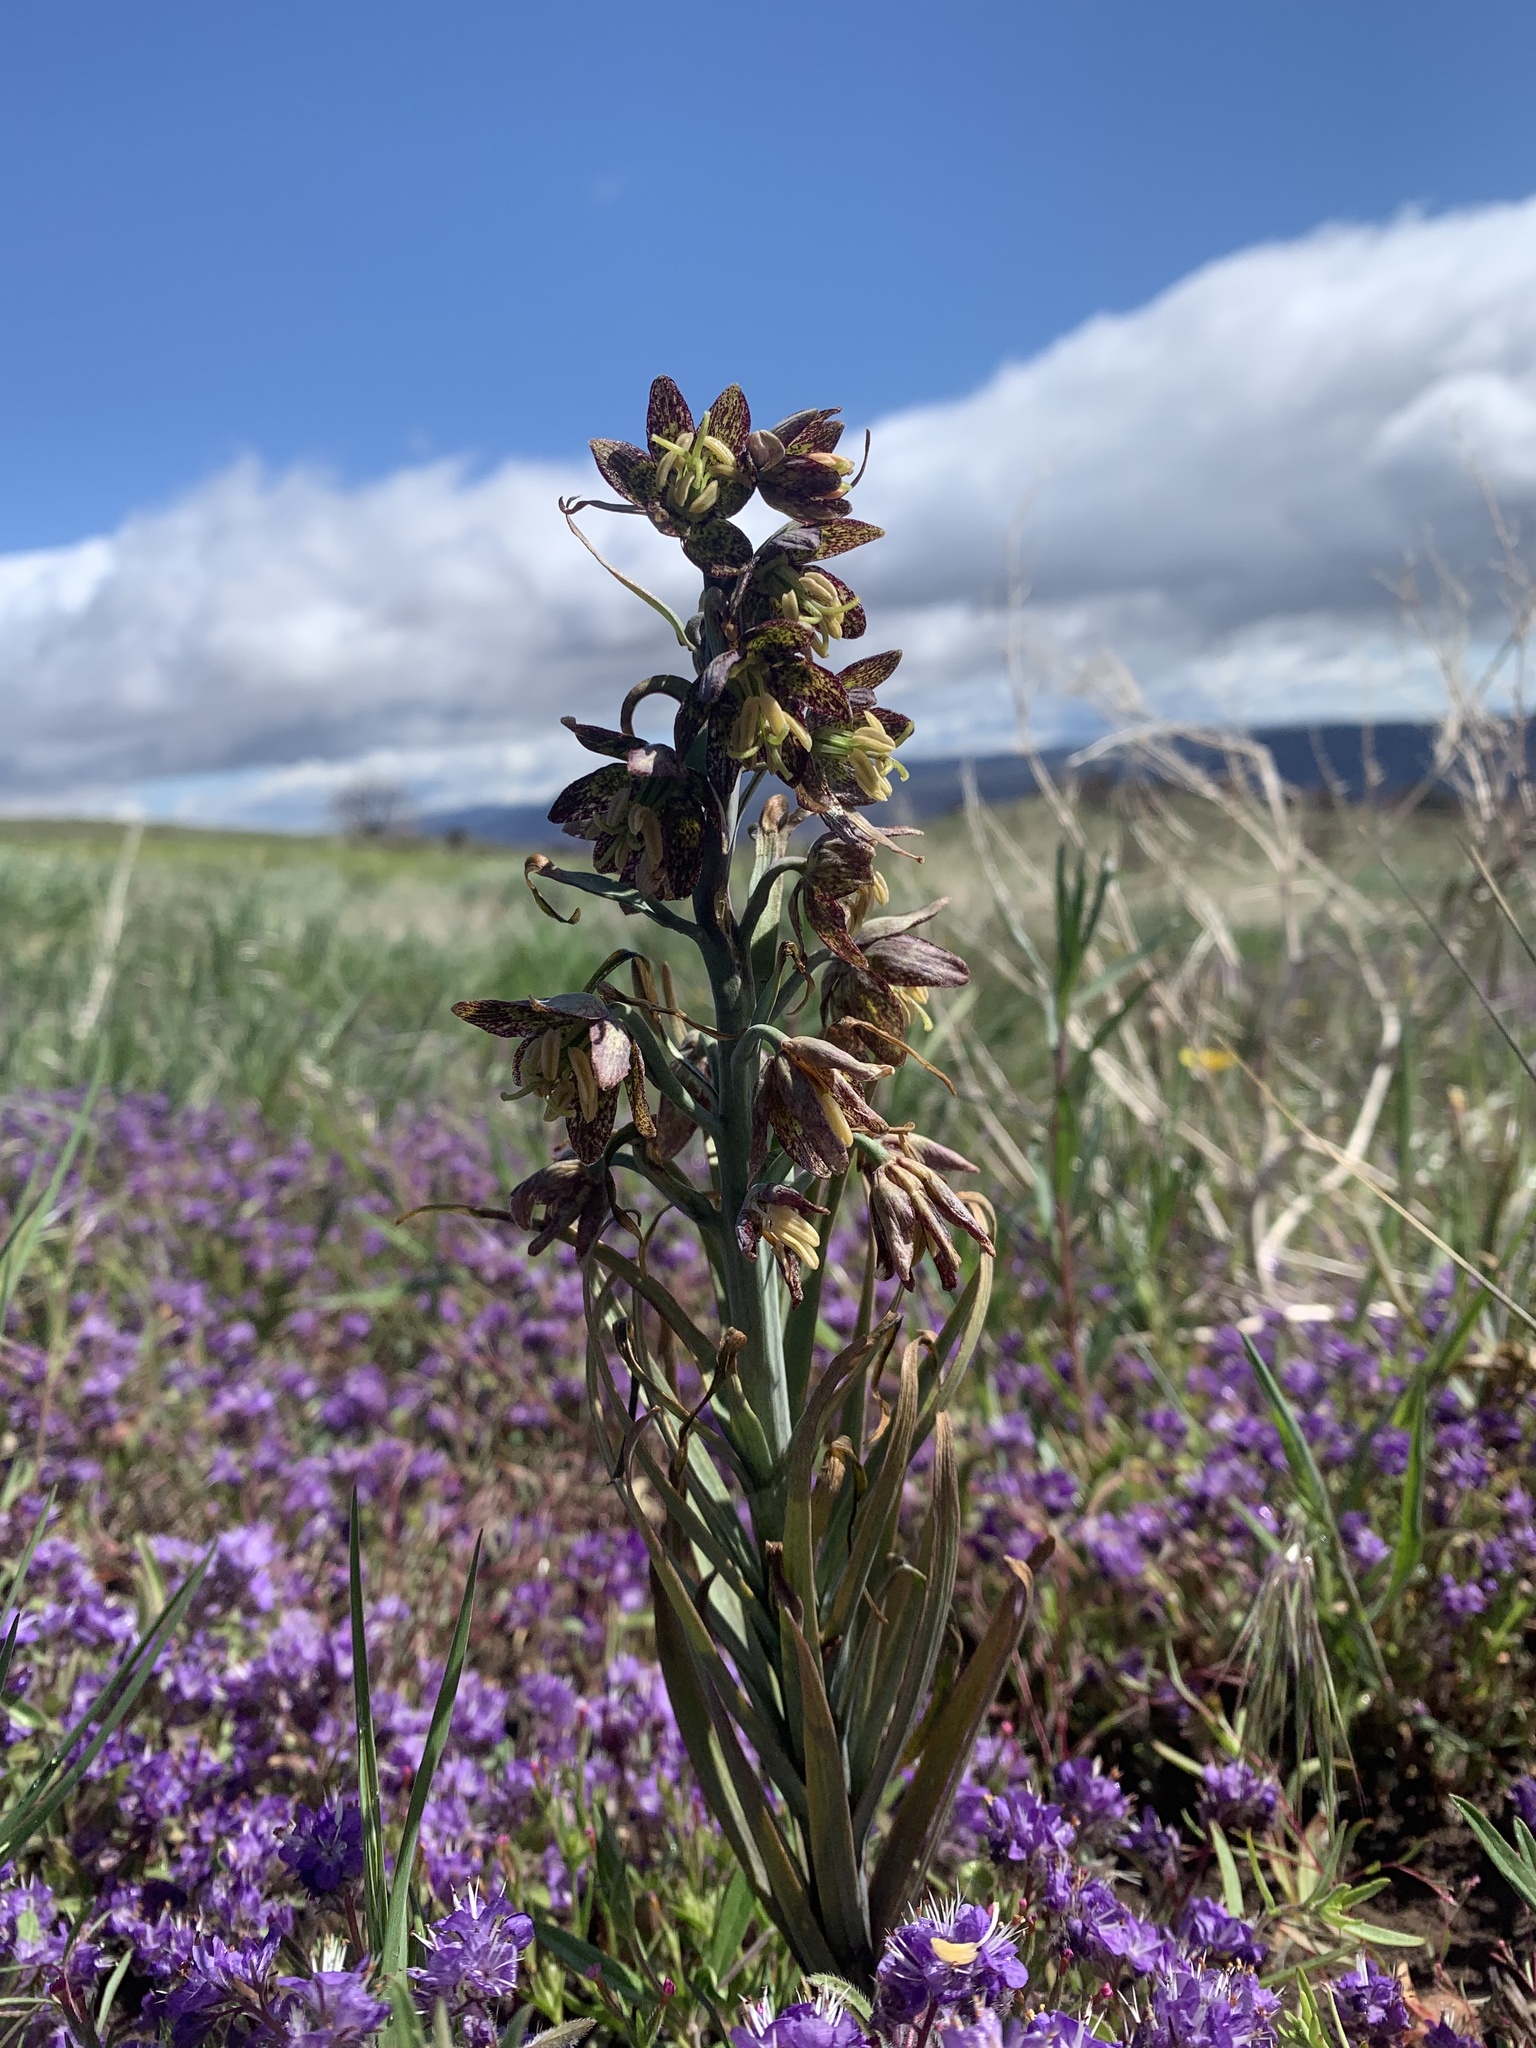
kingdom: Plantae
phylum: Tracheophyta
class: Liliopsida
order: Liliales
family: Liliaceae
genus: Fritillaria
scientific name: Fritillaria atropurpurea
